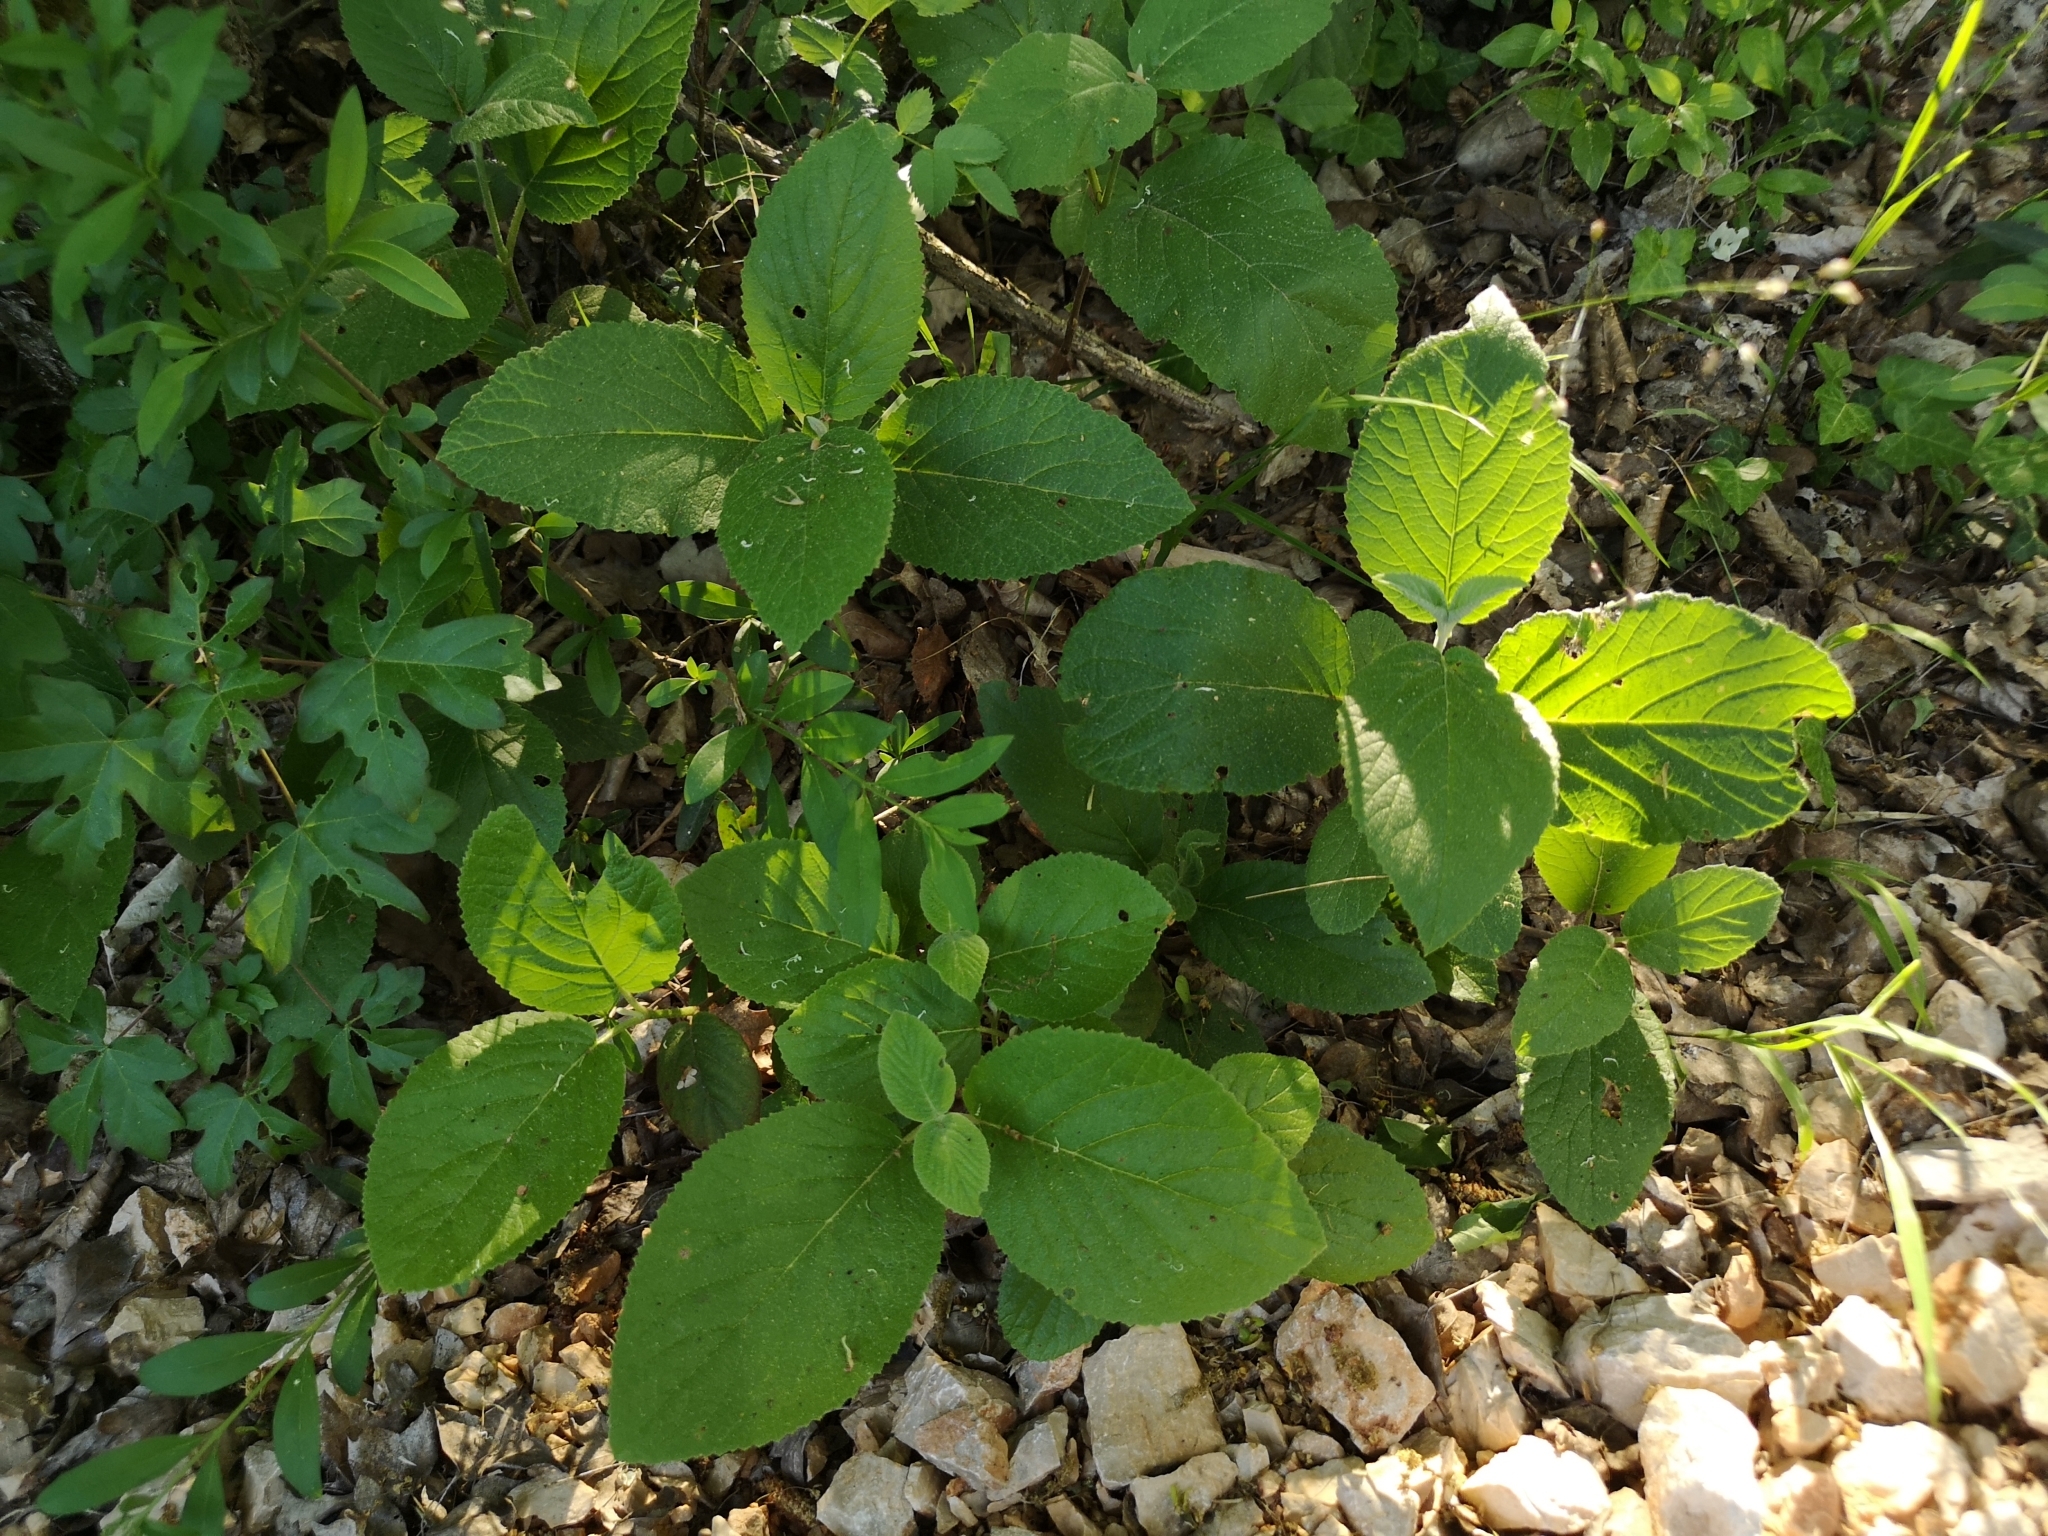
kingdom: Plantae
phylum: Tracheophyta
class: Magnoliopsida
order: Dipsacales
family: Viburnaceae
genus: Viburnum
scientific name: Viburnum lantana
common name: Wayfaring tree
